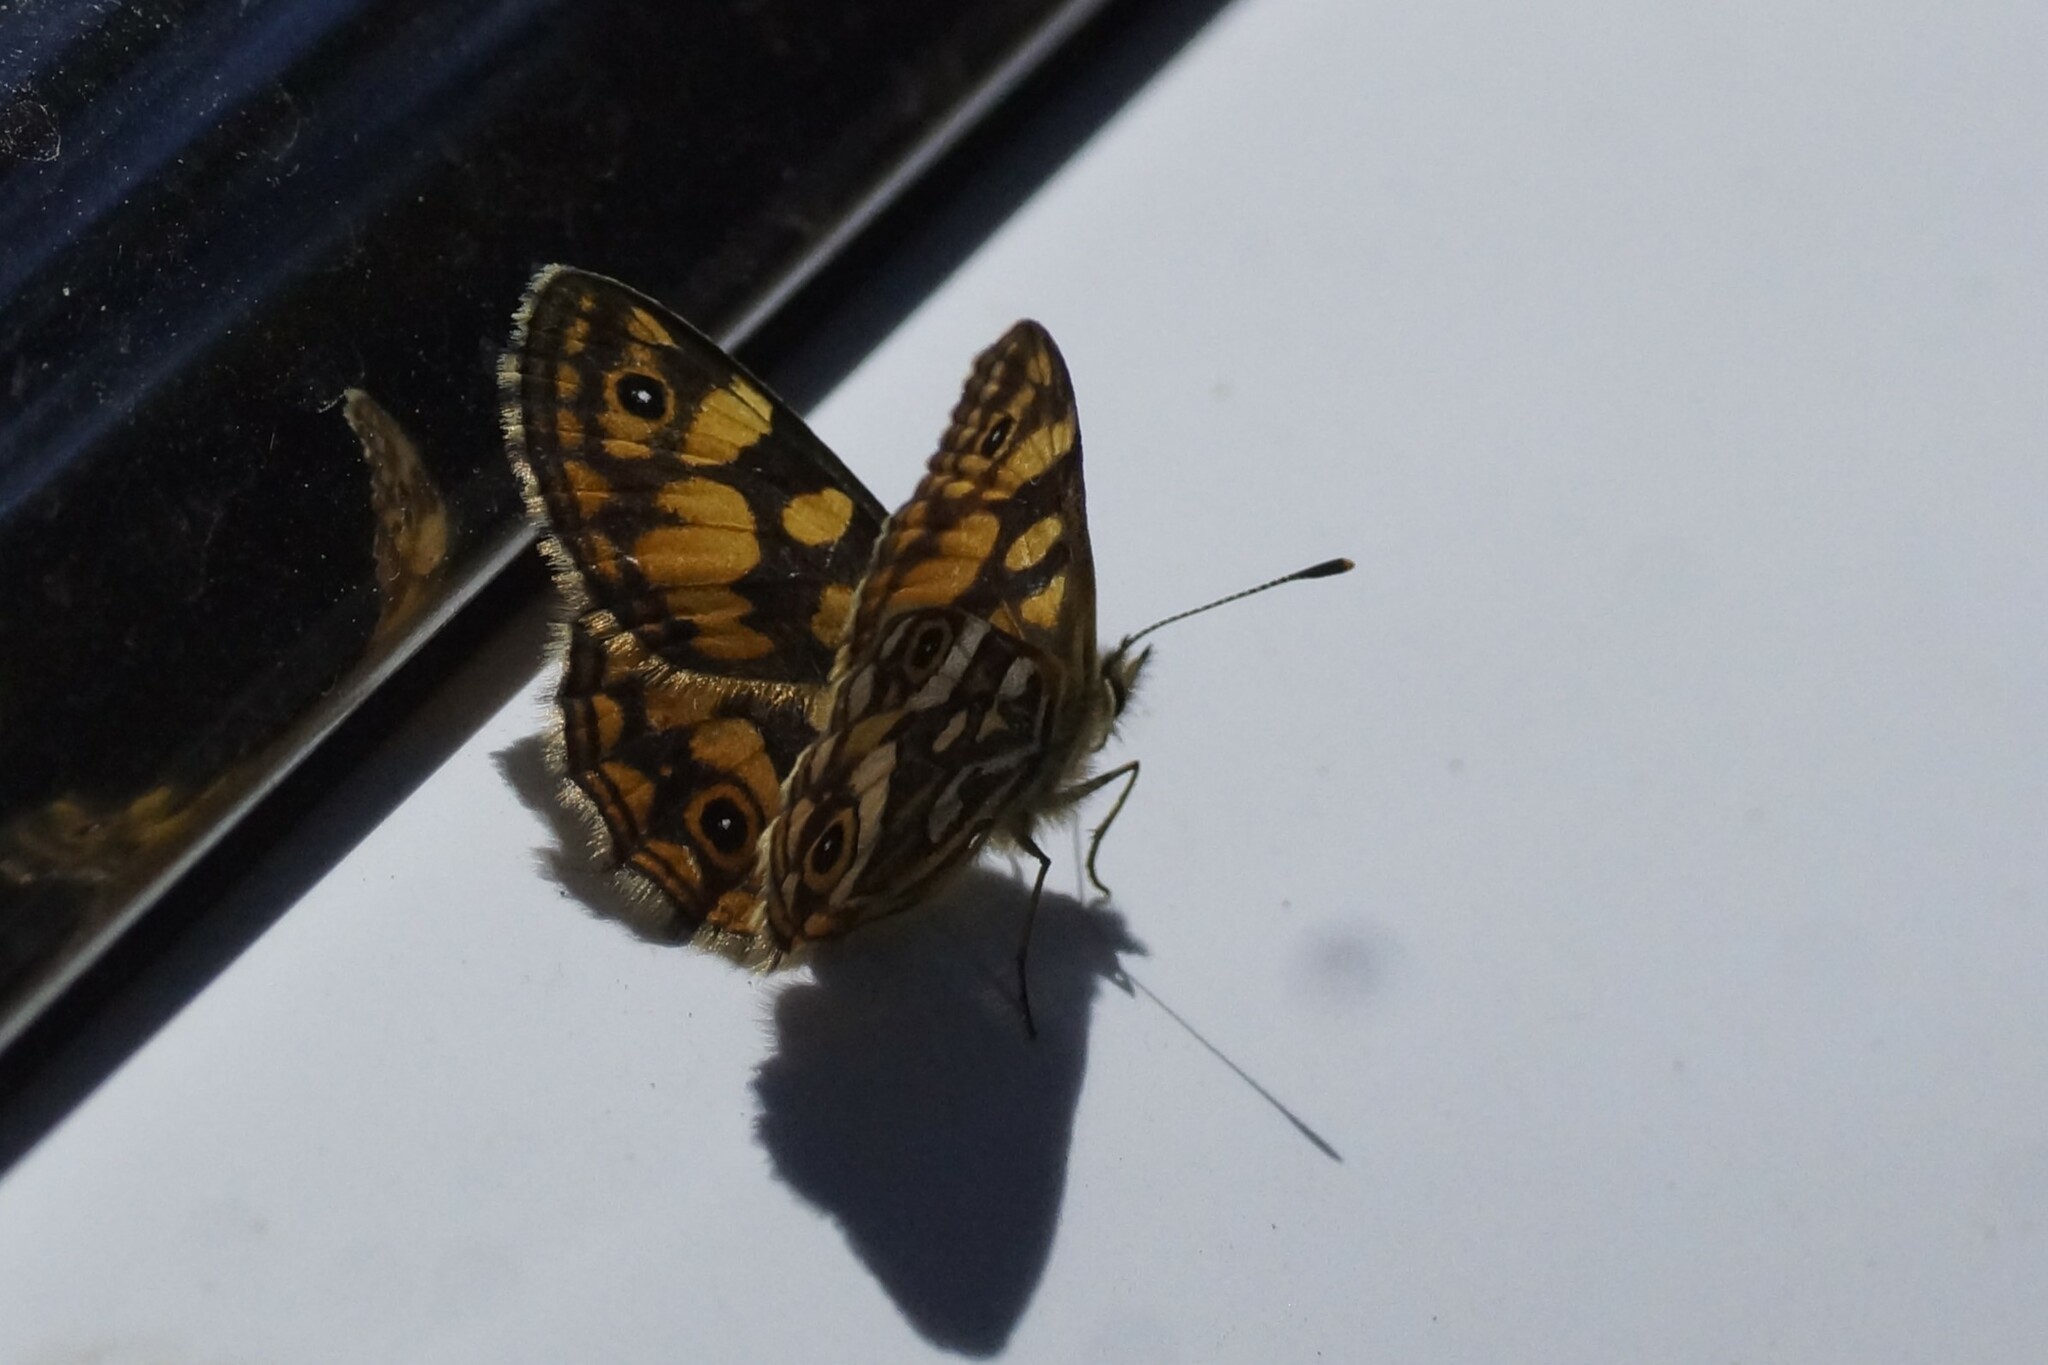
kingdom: Animalia
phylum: Arthropoda
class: Insecta
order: Lepidoptera
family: Nymphalidae
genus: Oreixenica
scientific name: Oreixenica lathoniella
